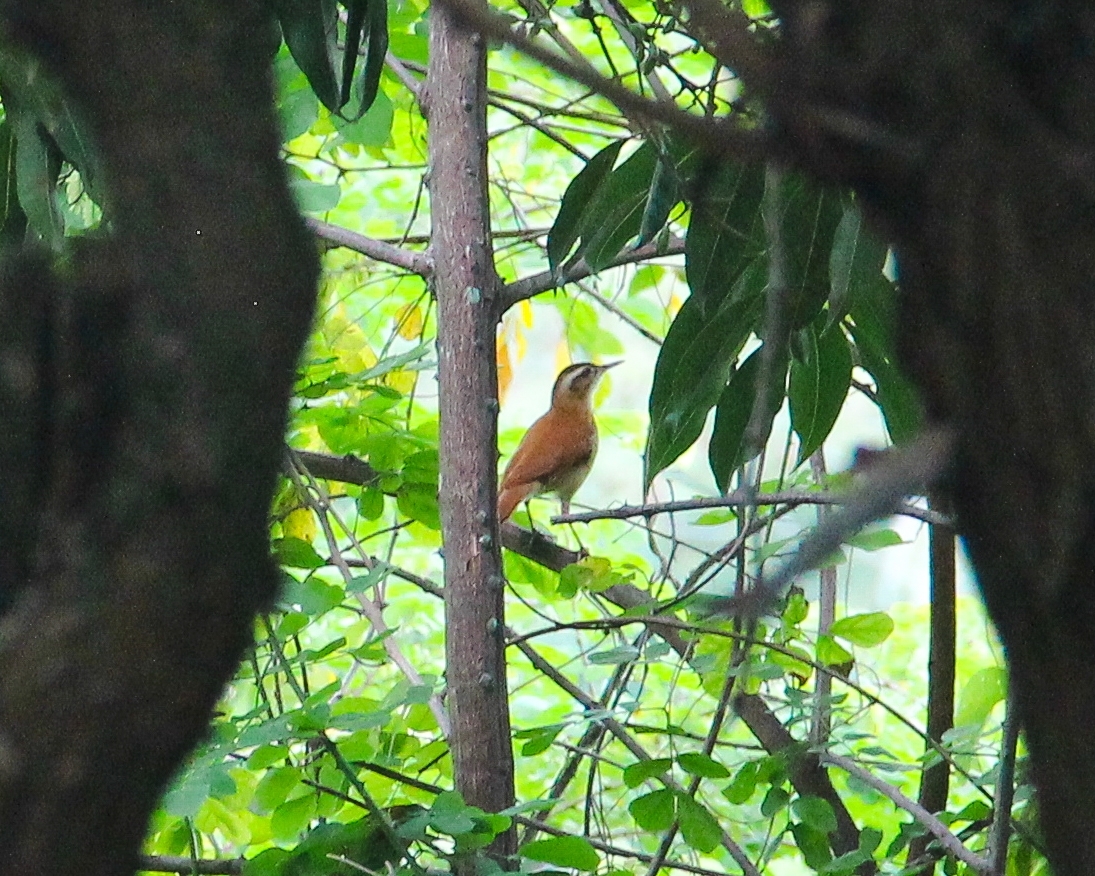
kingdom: Animalia
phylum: Chordata
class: Aves
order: Passeriformes
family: Furnariidae
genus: Furnarius
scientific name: Furnarius figulus
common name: Band-tailed hornero
